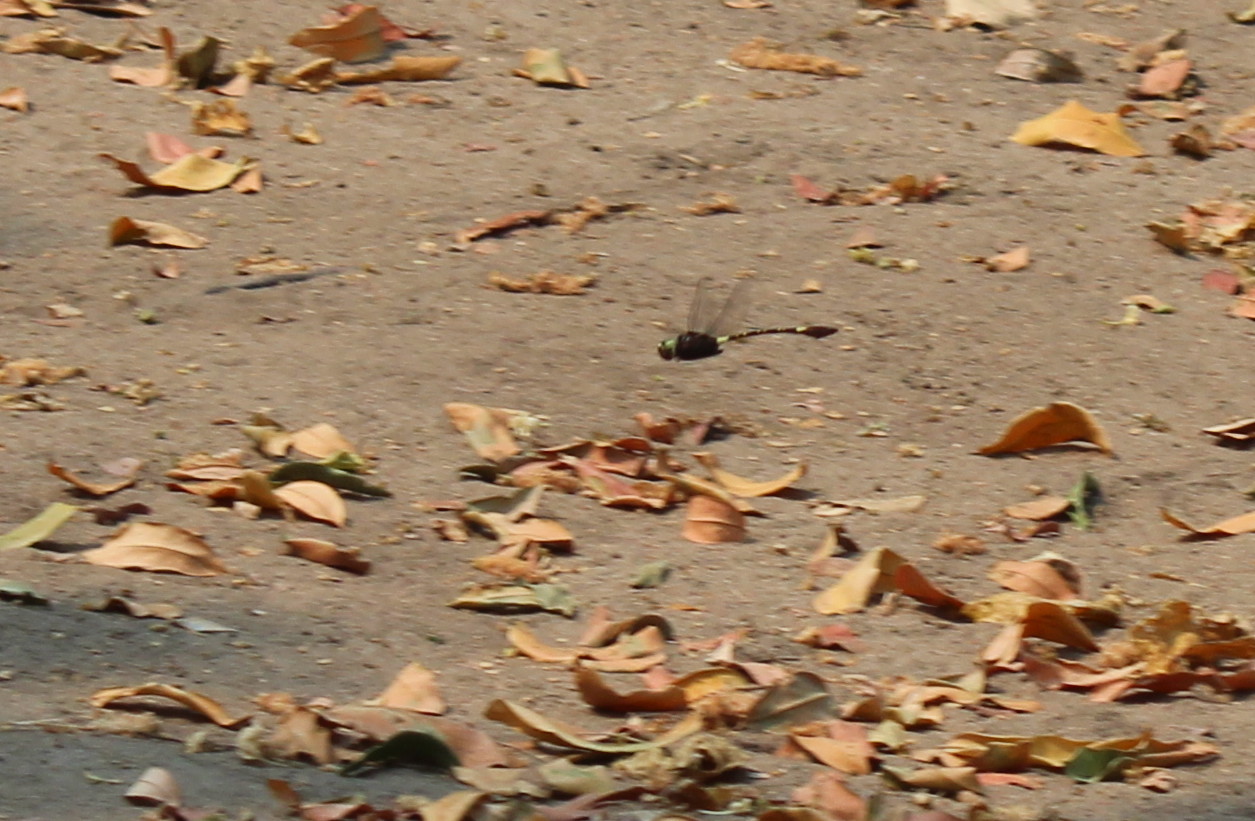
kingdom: Animalia
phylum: Arthropoda
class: Insecta
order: Odonata
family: Macromiidae
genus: Phyllomacromia
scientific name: Phyllomacromia contumax
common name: Two-banded cruiser
